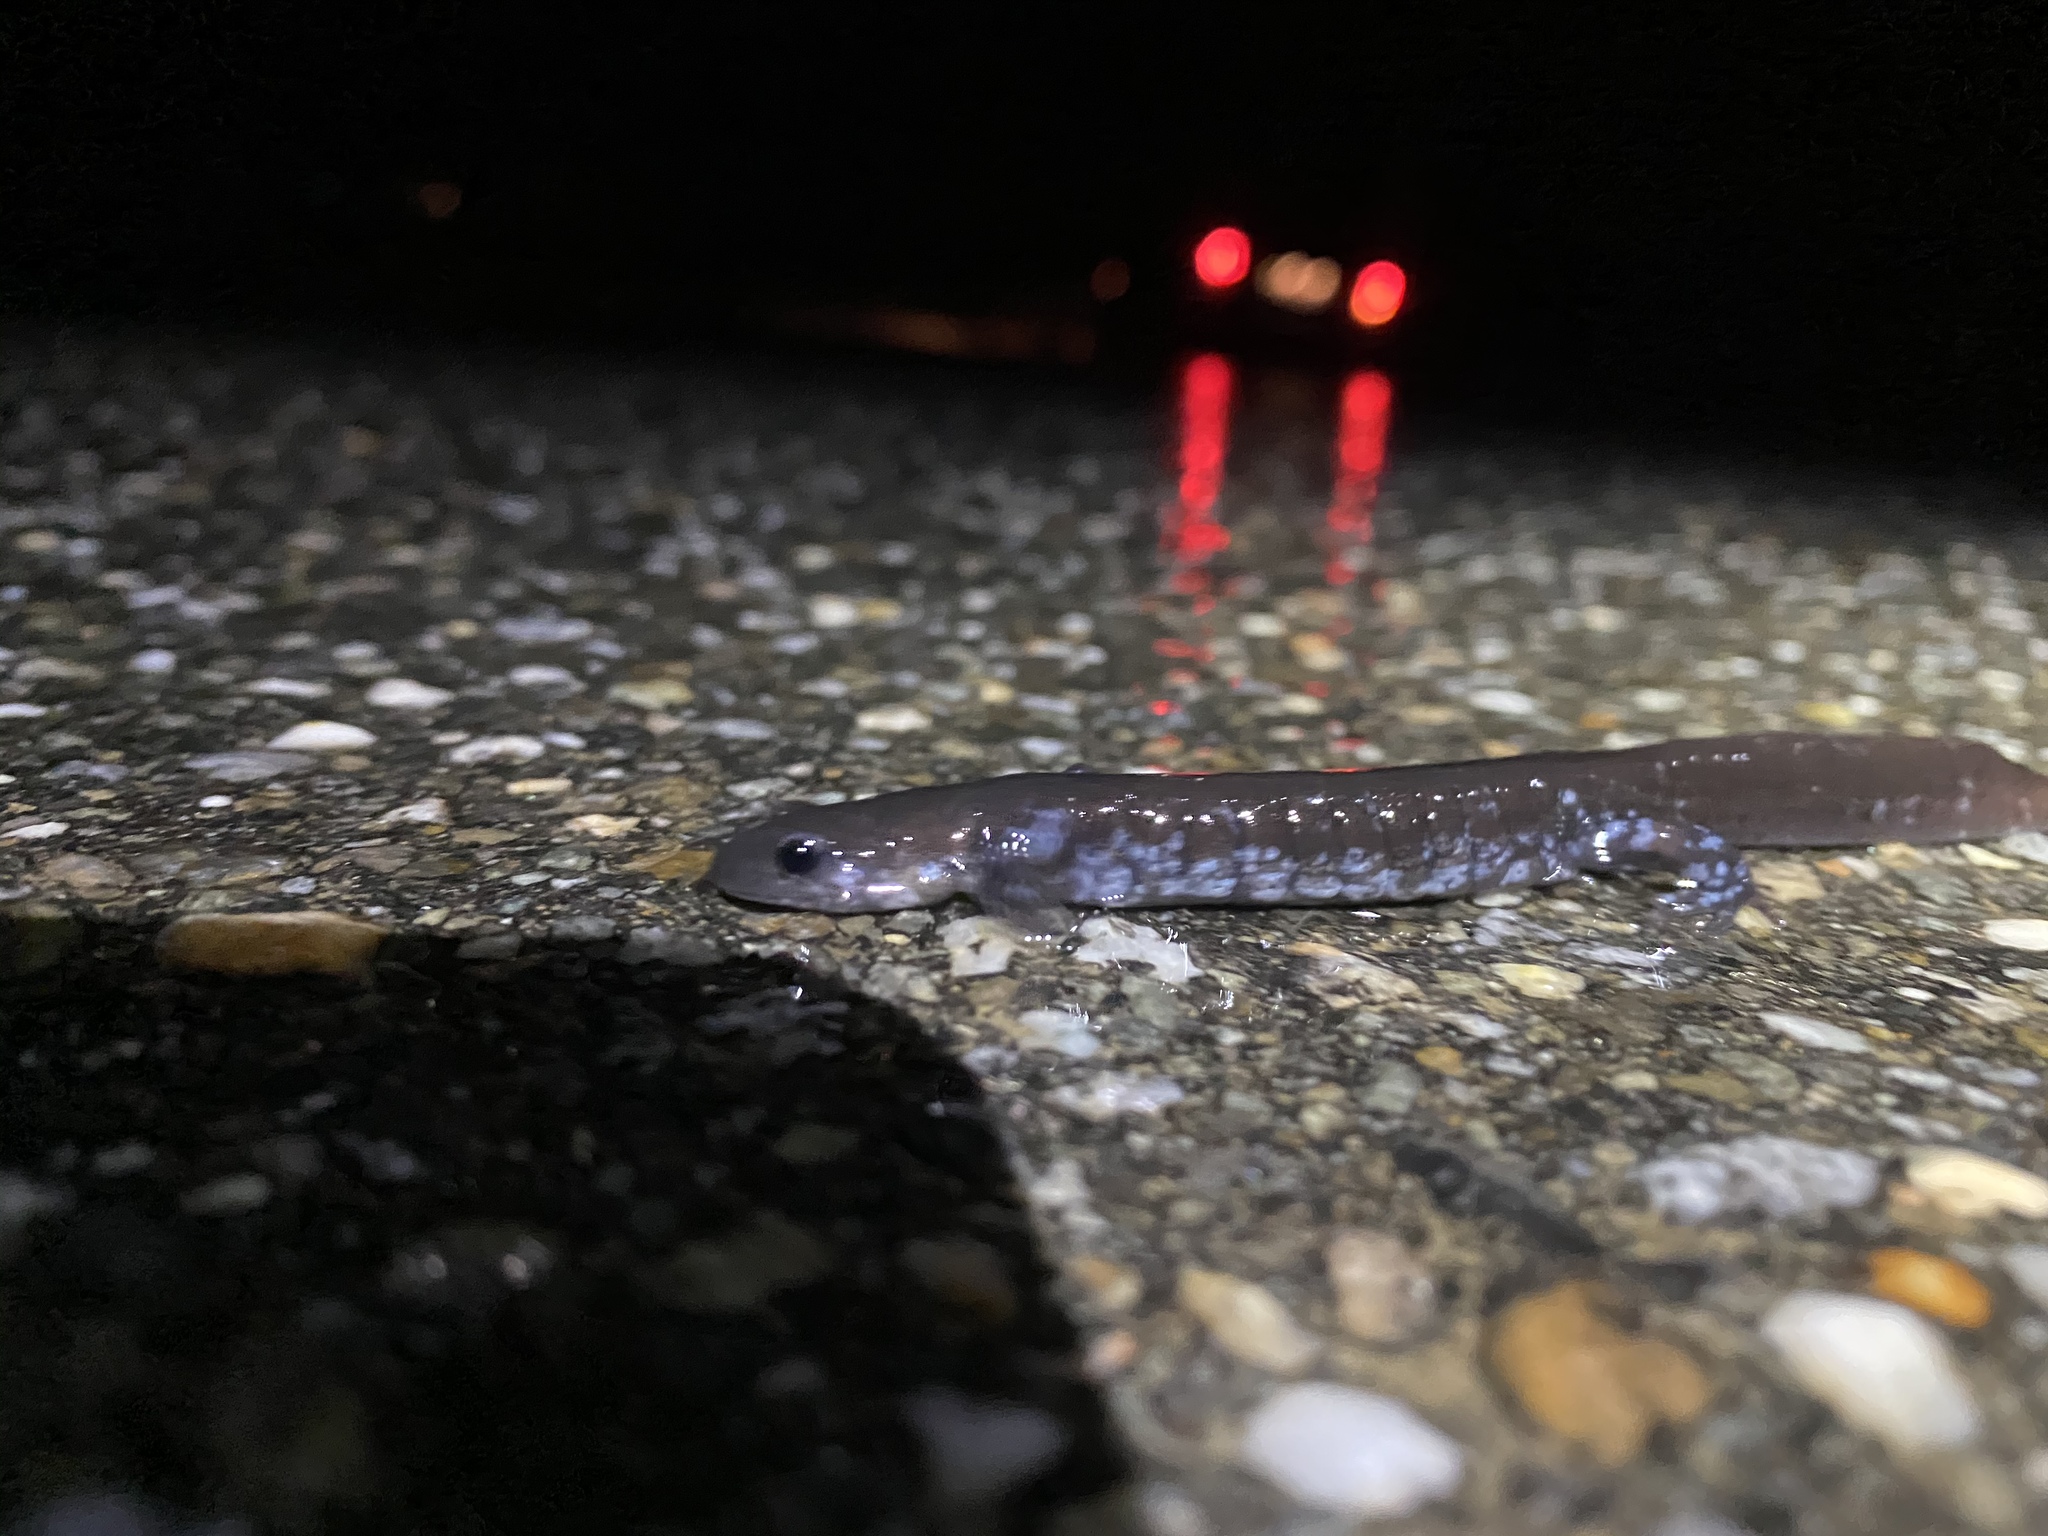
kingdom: Animalia
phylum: Chordata
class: Amphibia
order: Caudata
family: Ambystomatidae
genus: Ambystoma
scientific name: Ambystoma unisexual
